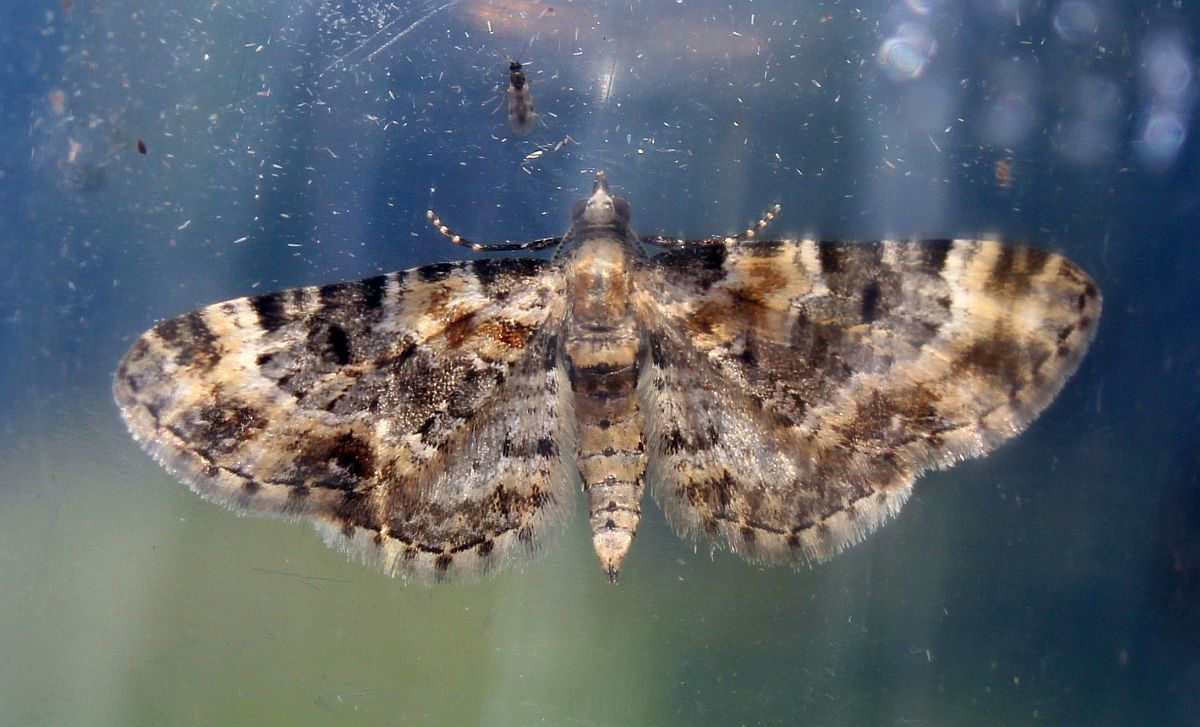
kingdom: Animalia
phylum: Arthropoda
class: Insecta
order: Lepidoptera
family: Geometridae
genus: Eupithecia
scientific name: Eupithecia pulchellata
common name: Foxglove pug
